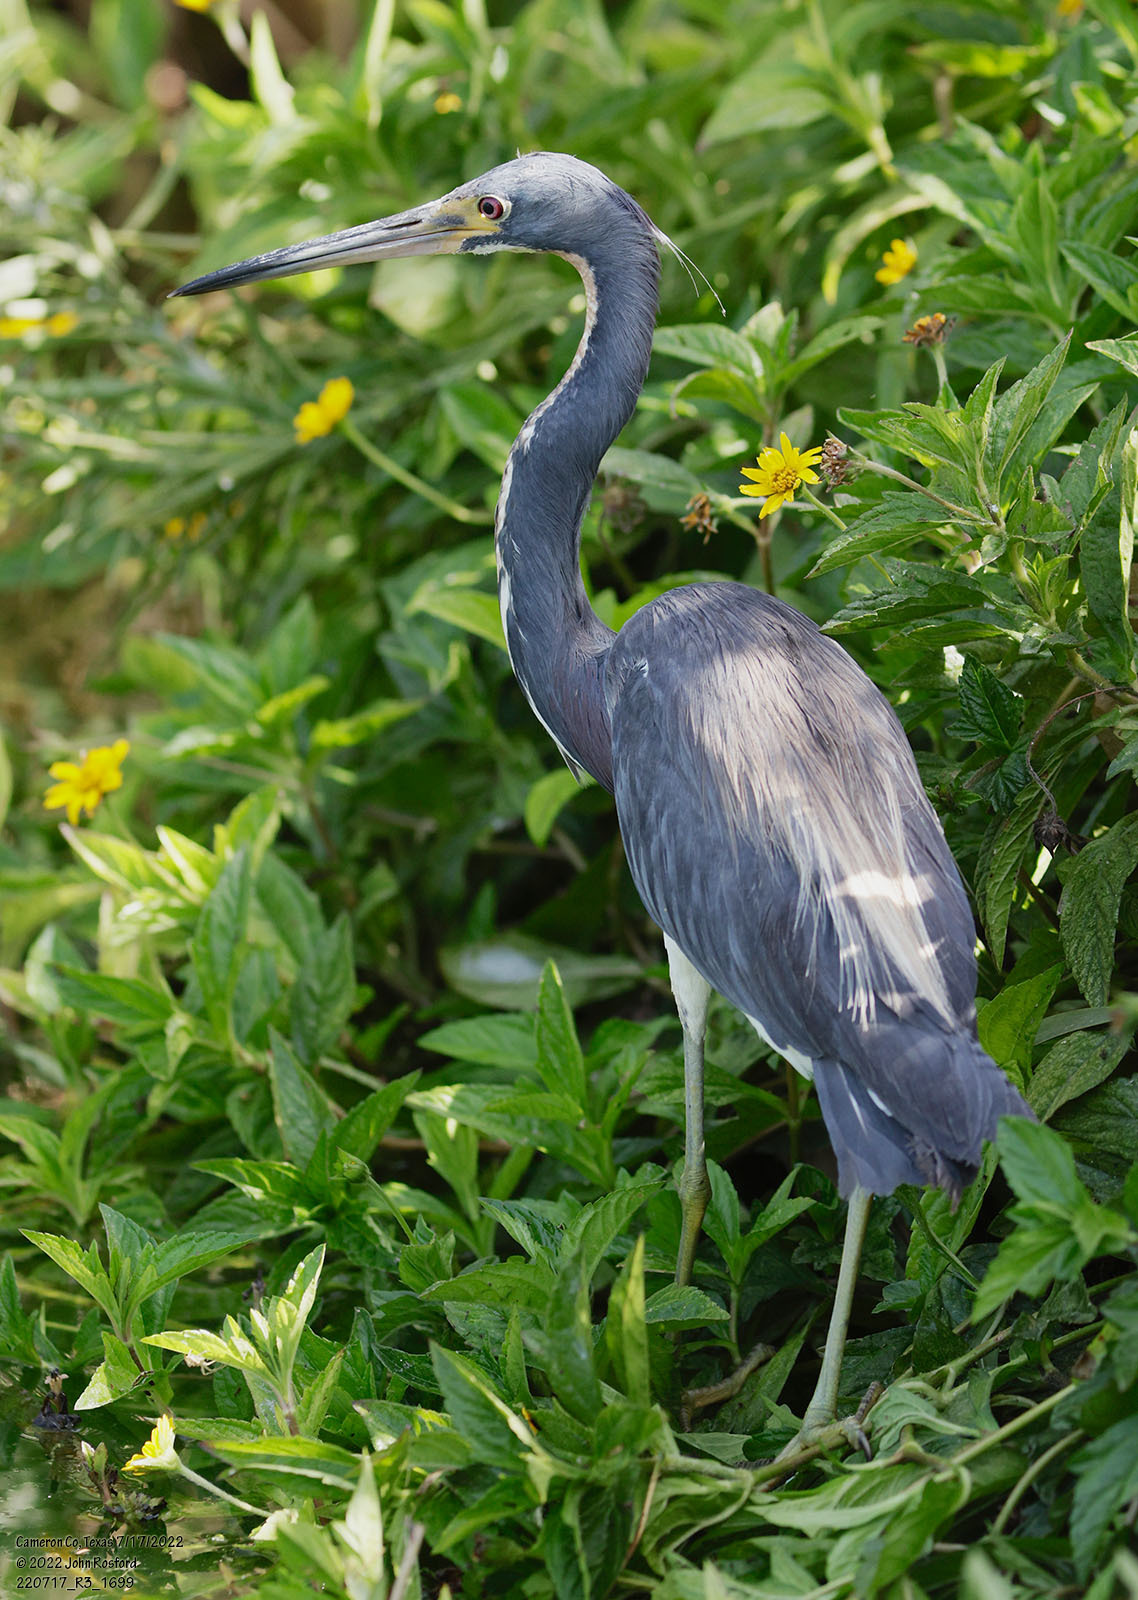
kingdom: Animalia
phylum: Chordata
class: Aves
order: Pelecaniformes
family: Ardeidae
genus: Egretta
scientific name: Egretta tricolor
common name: Tricolored heron
